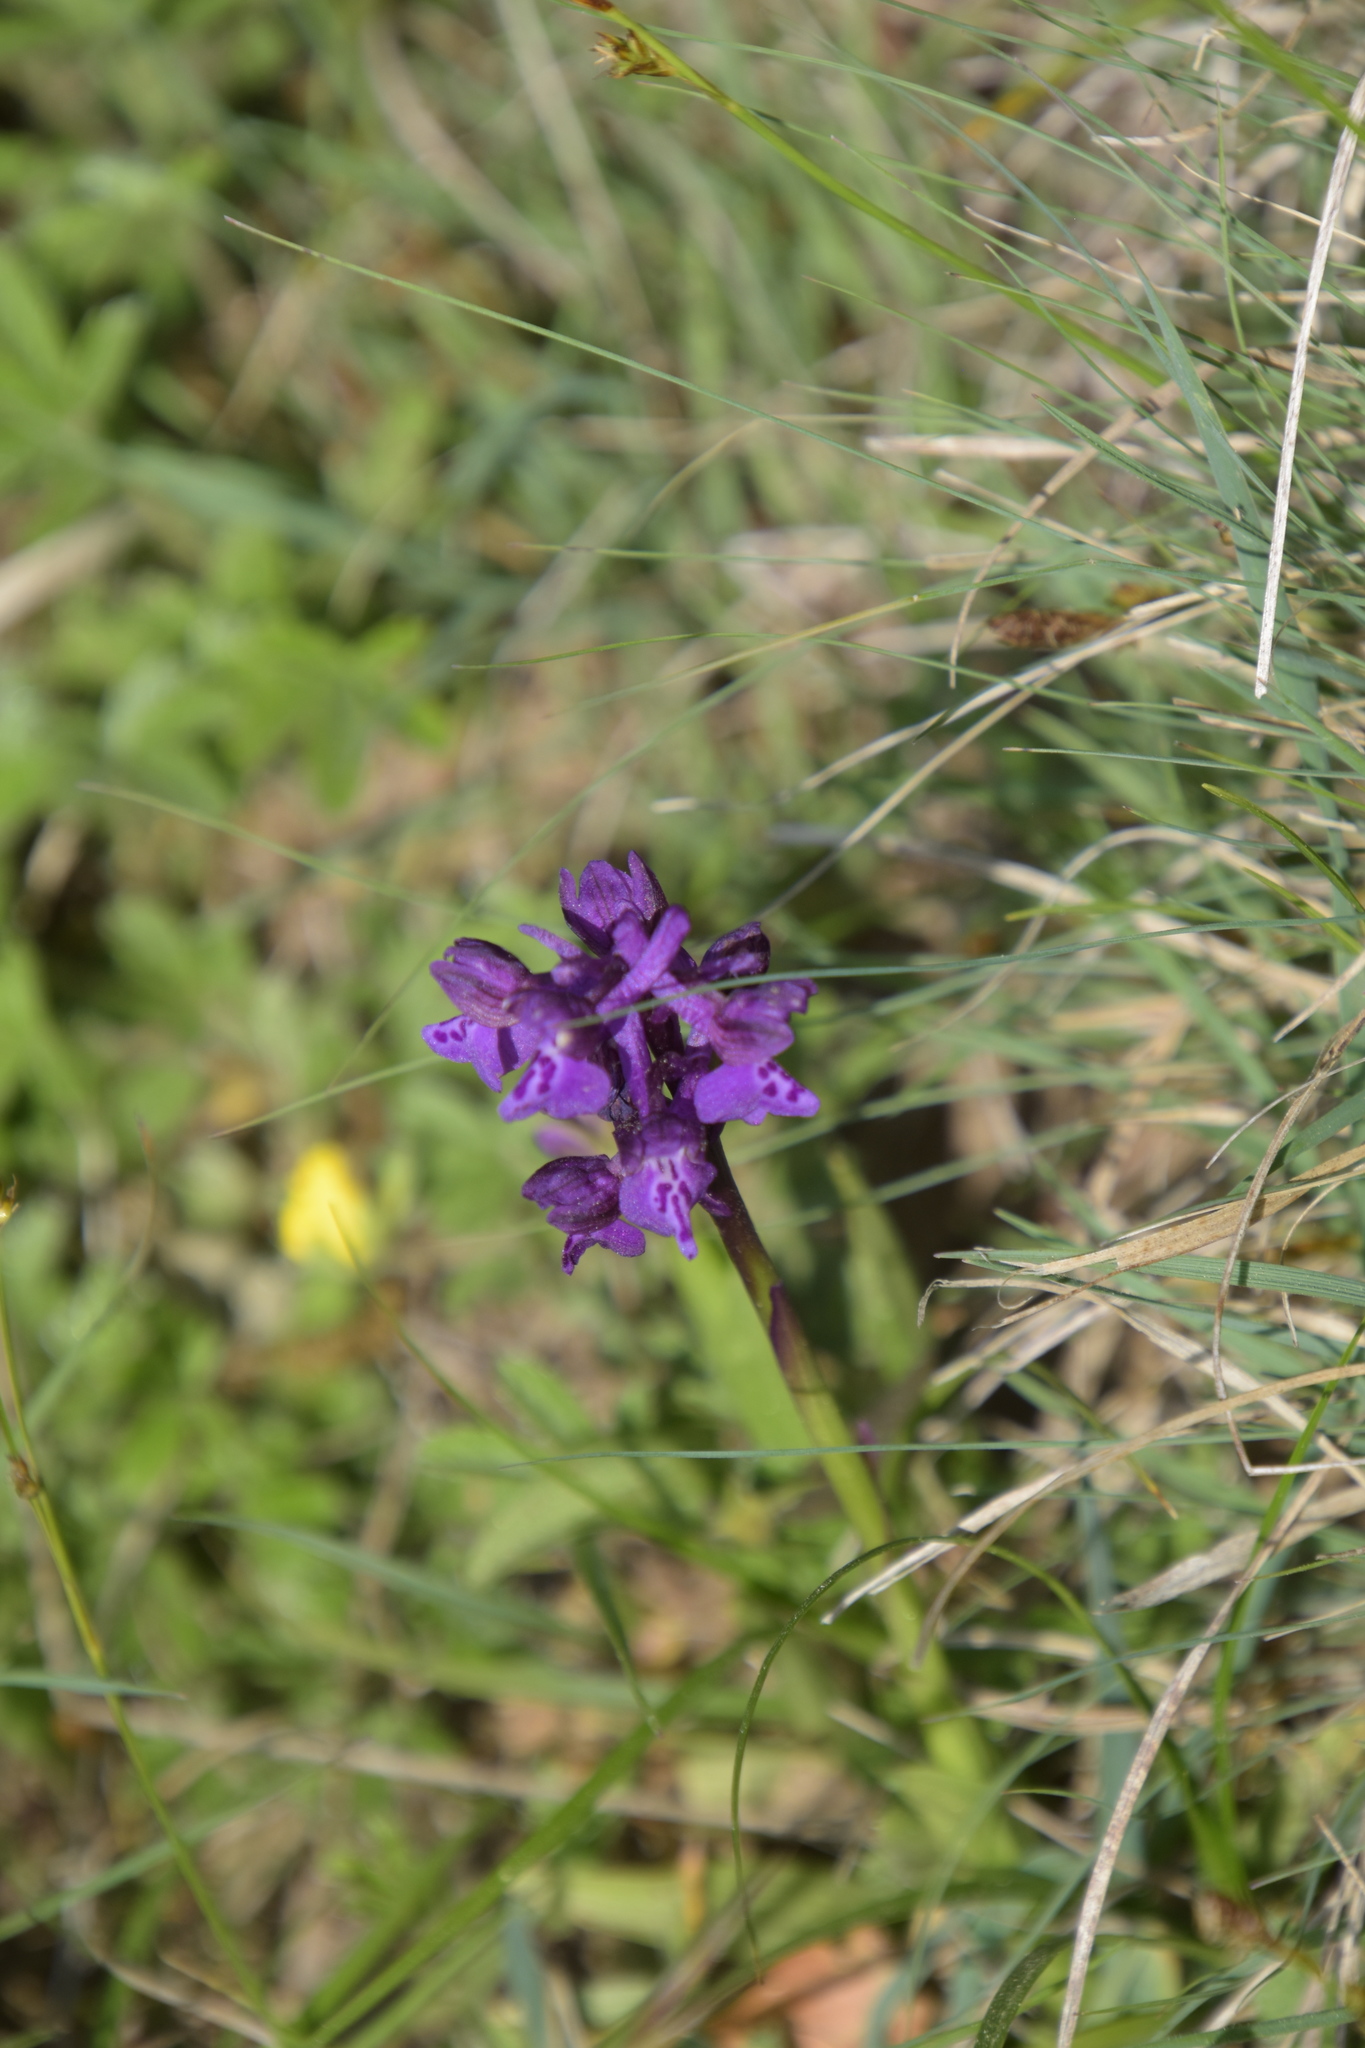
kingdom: Plantae
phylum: Tracheophyta
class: Liliopsida
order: Asparagales
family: Orchidaceae
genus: Anacamptis
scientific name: Anacamptis morio
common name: Green-winged orchid
